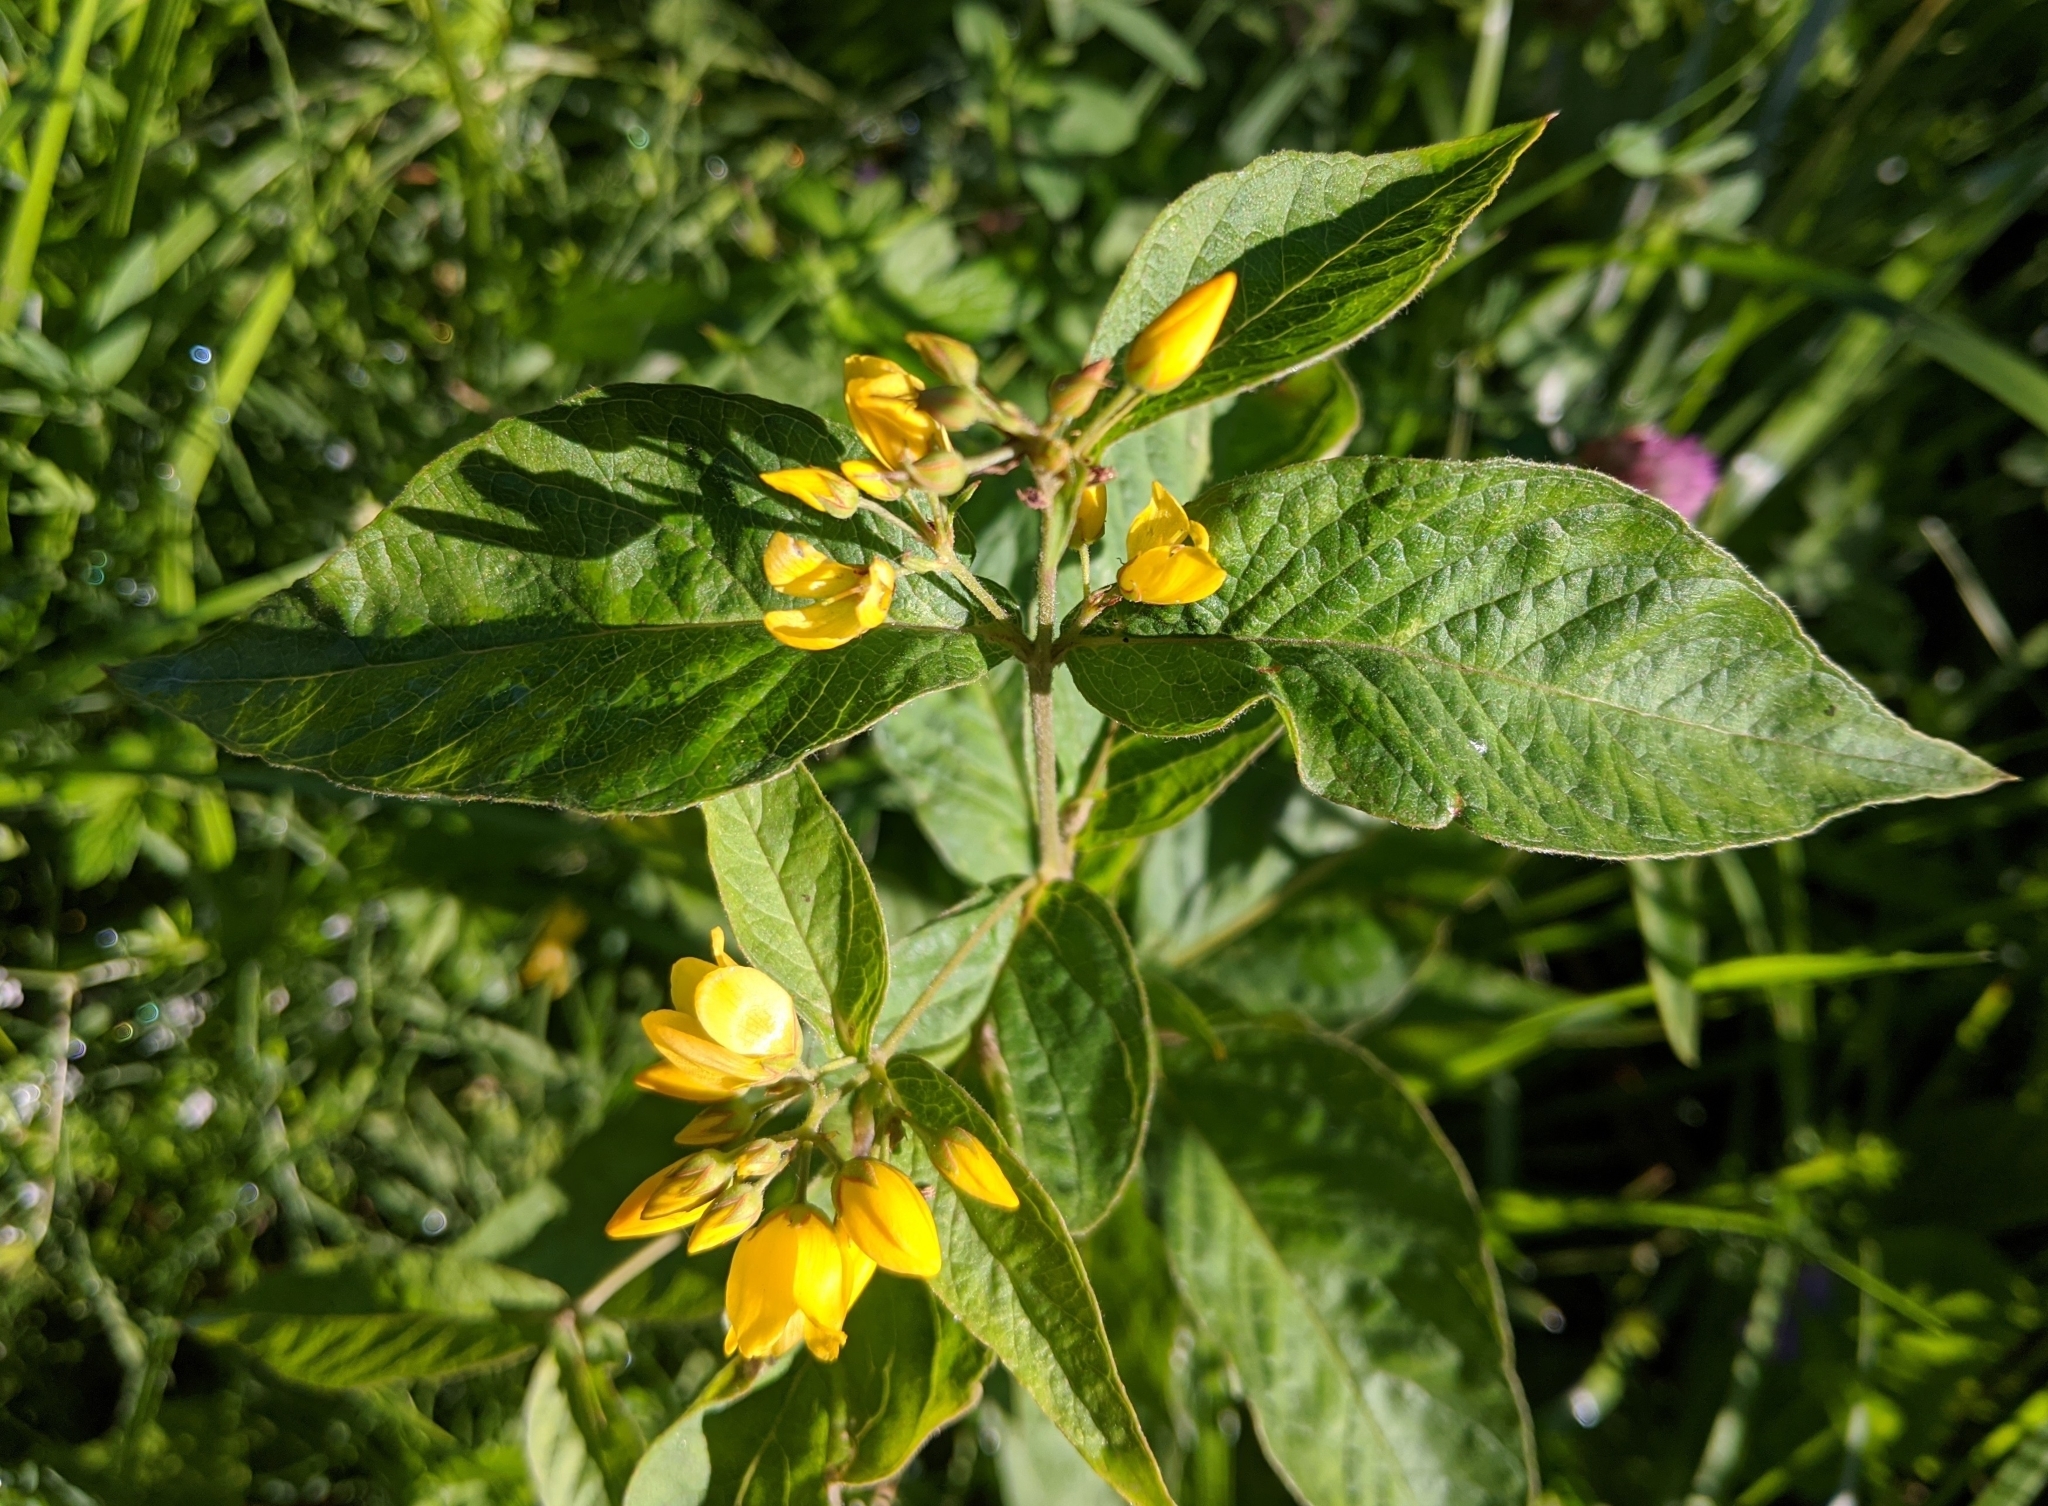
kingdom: Plantae
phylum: Tracheophyta
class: Magnoliopsida
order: Ericales
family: Primulaceae
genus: Lysimachia
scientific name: Lysimachia vulgaris
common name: Yellow loosestrife
